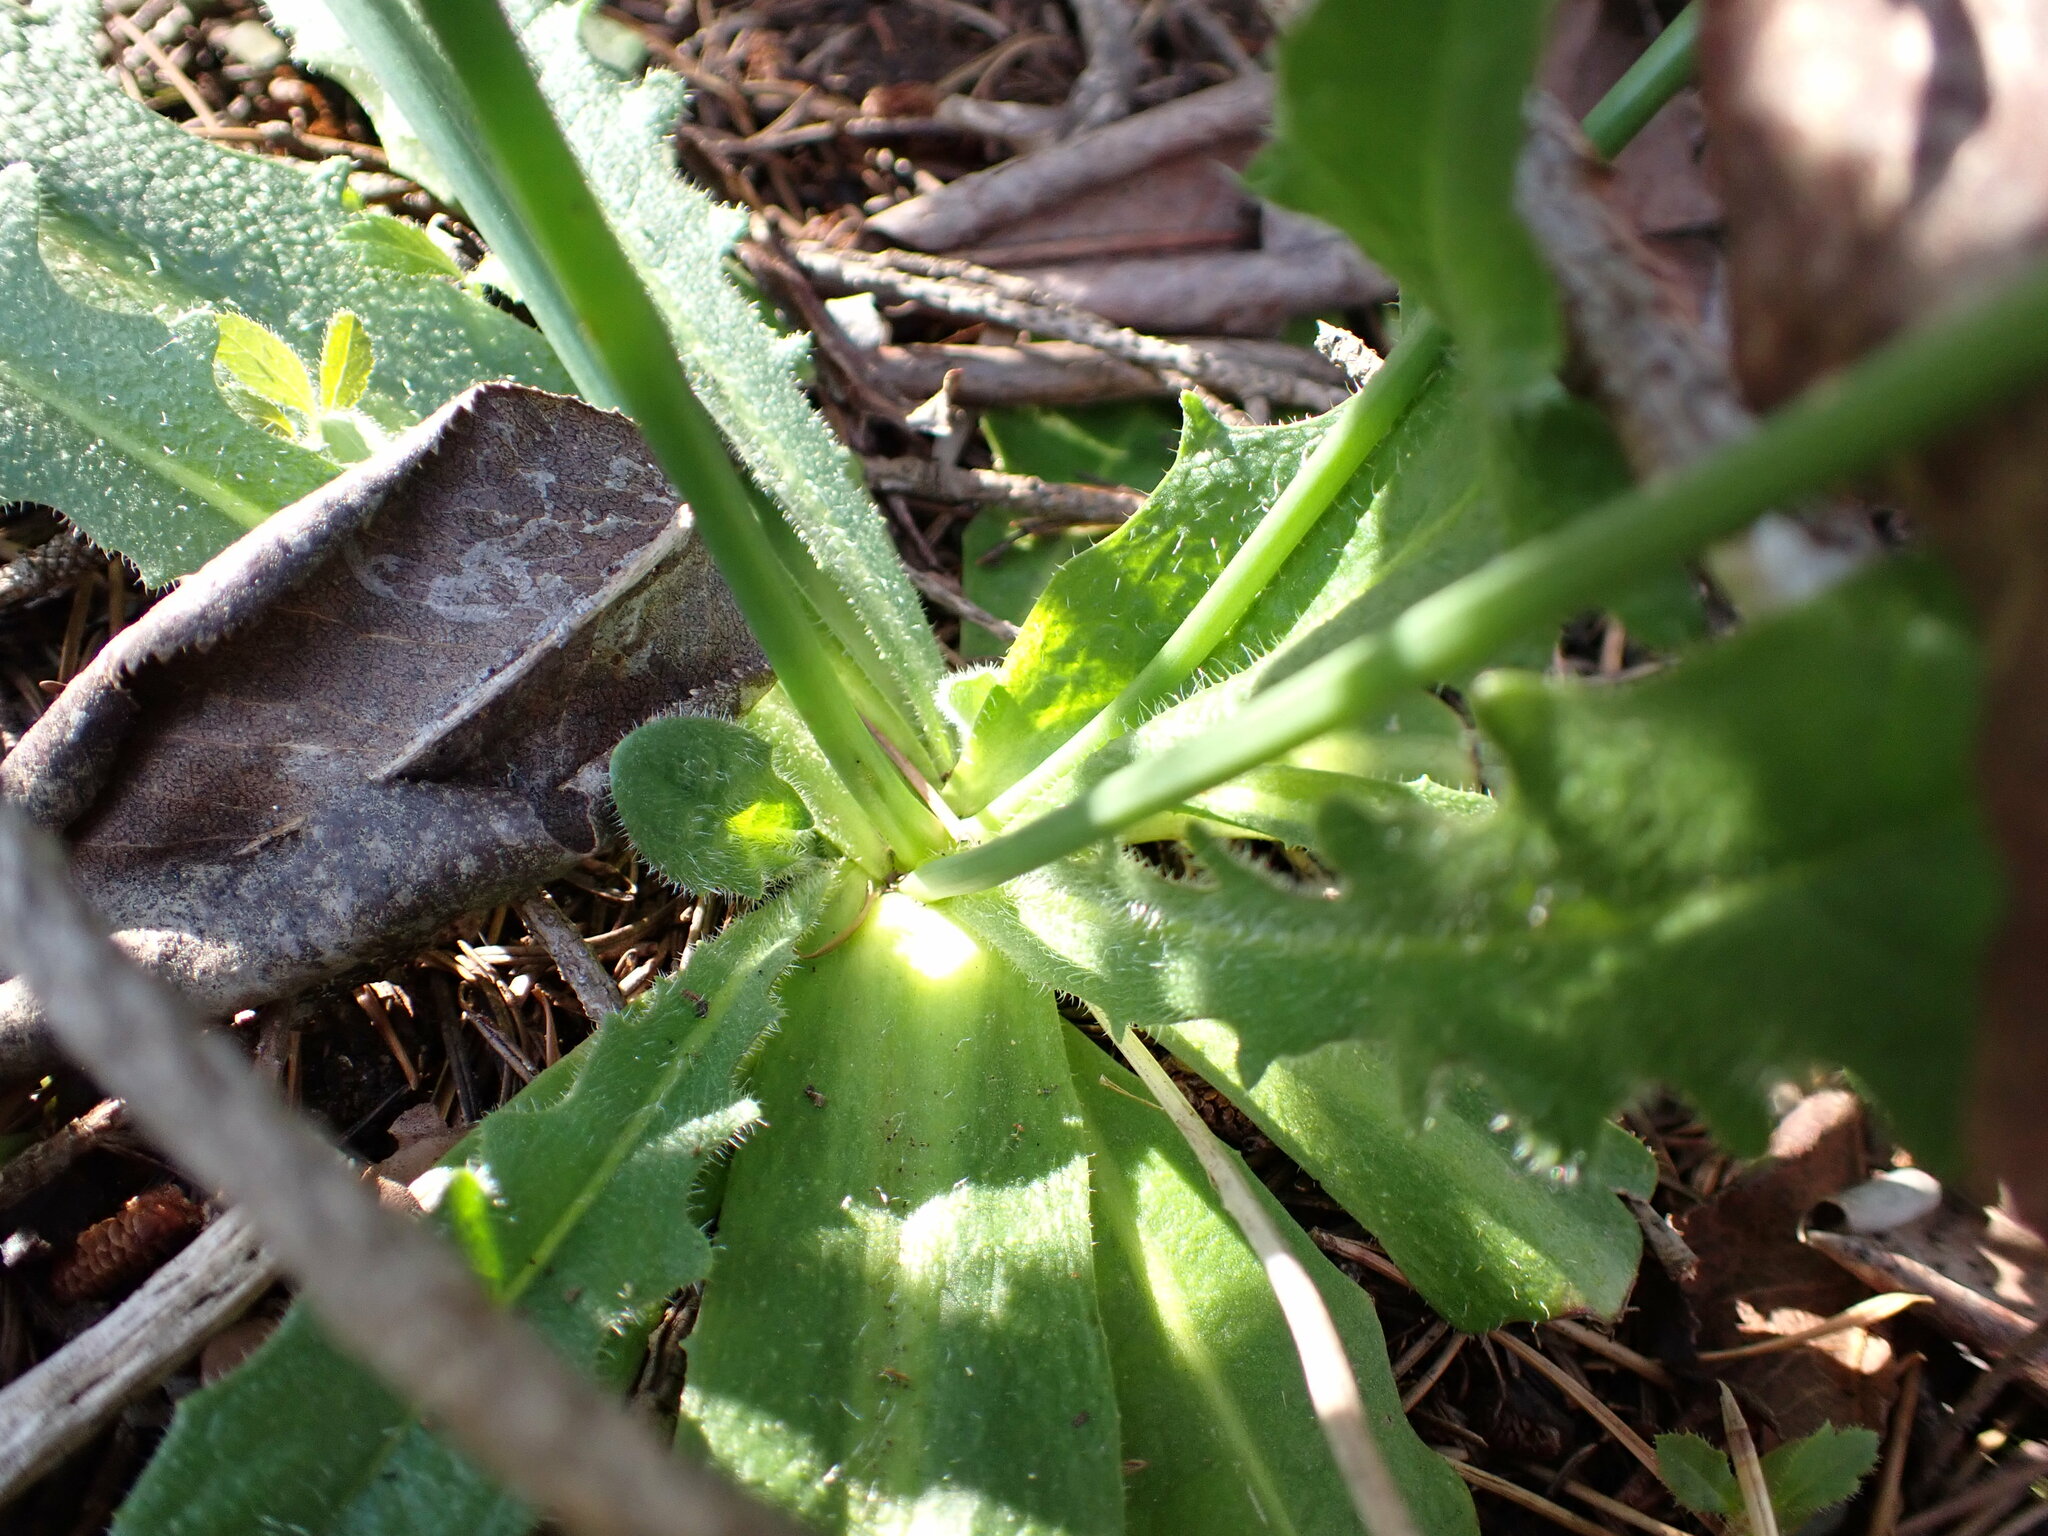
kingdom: Plantae
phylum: Tracheophyta
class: Magnoliopsida
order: Asterales
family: Asteraceae
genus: Hypochaeris
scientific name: Hypochaeris radicata
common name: Flatweed
